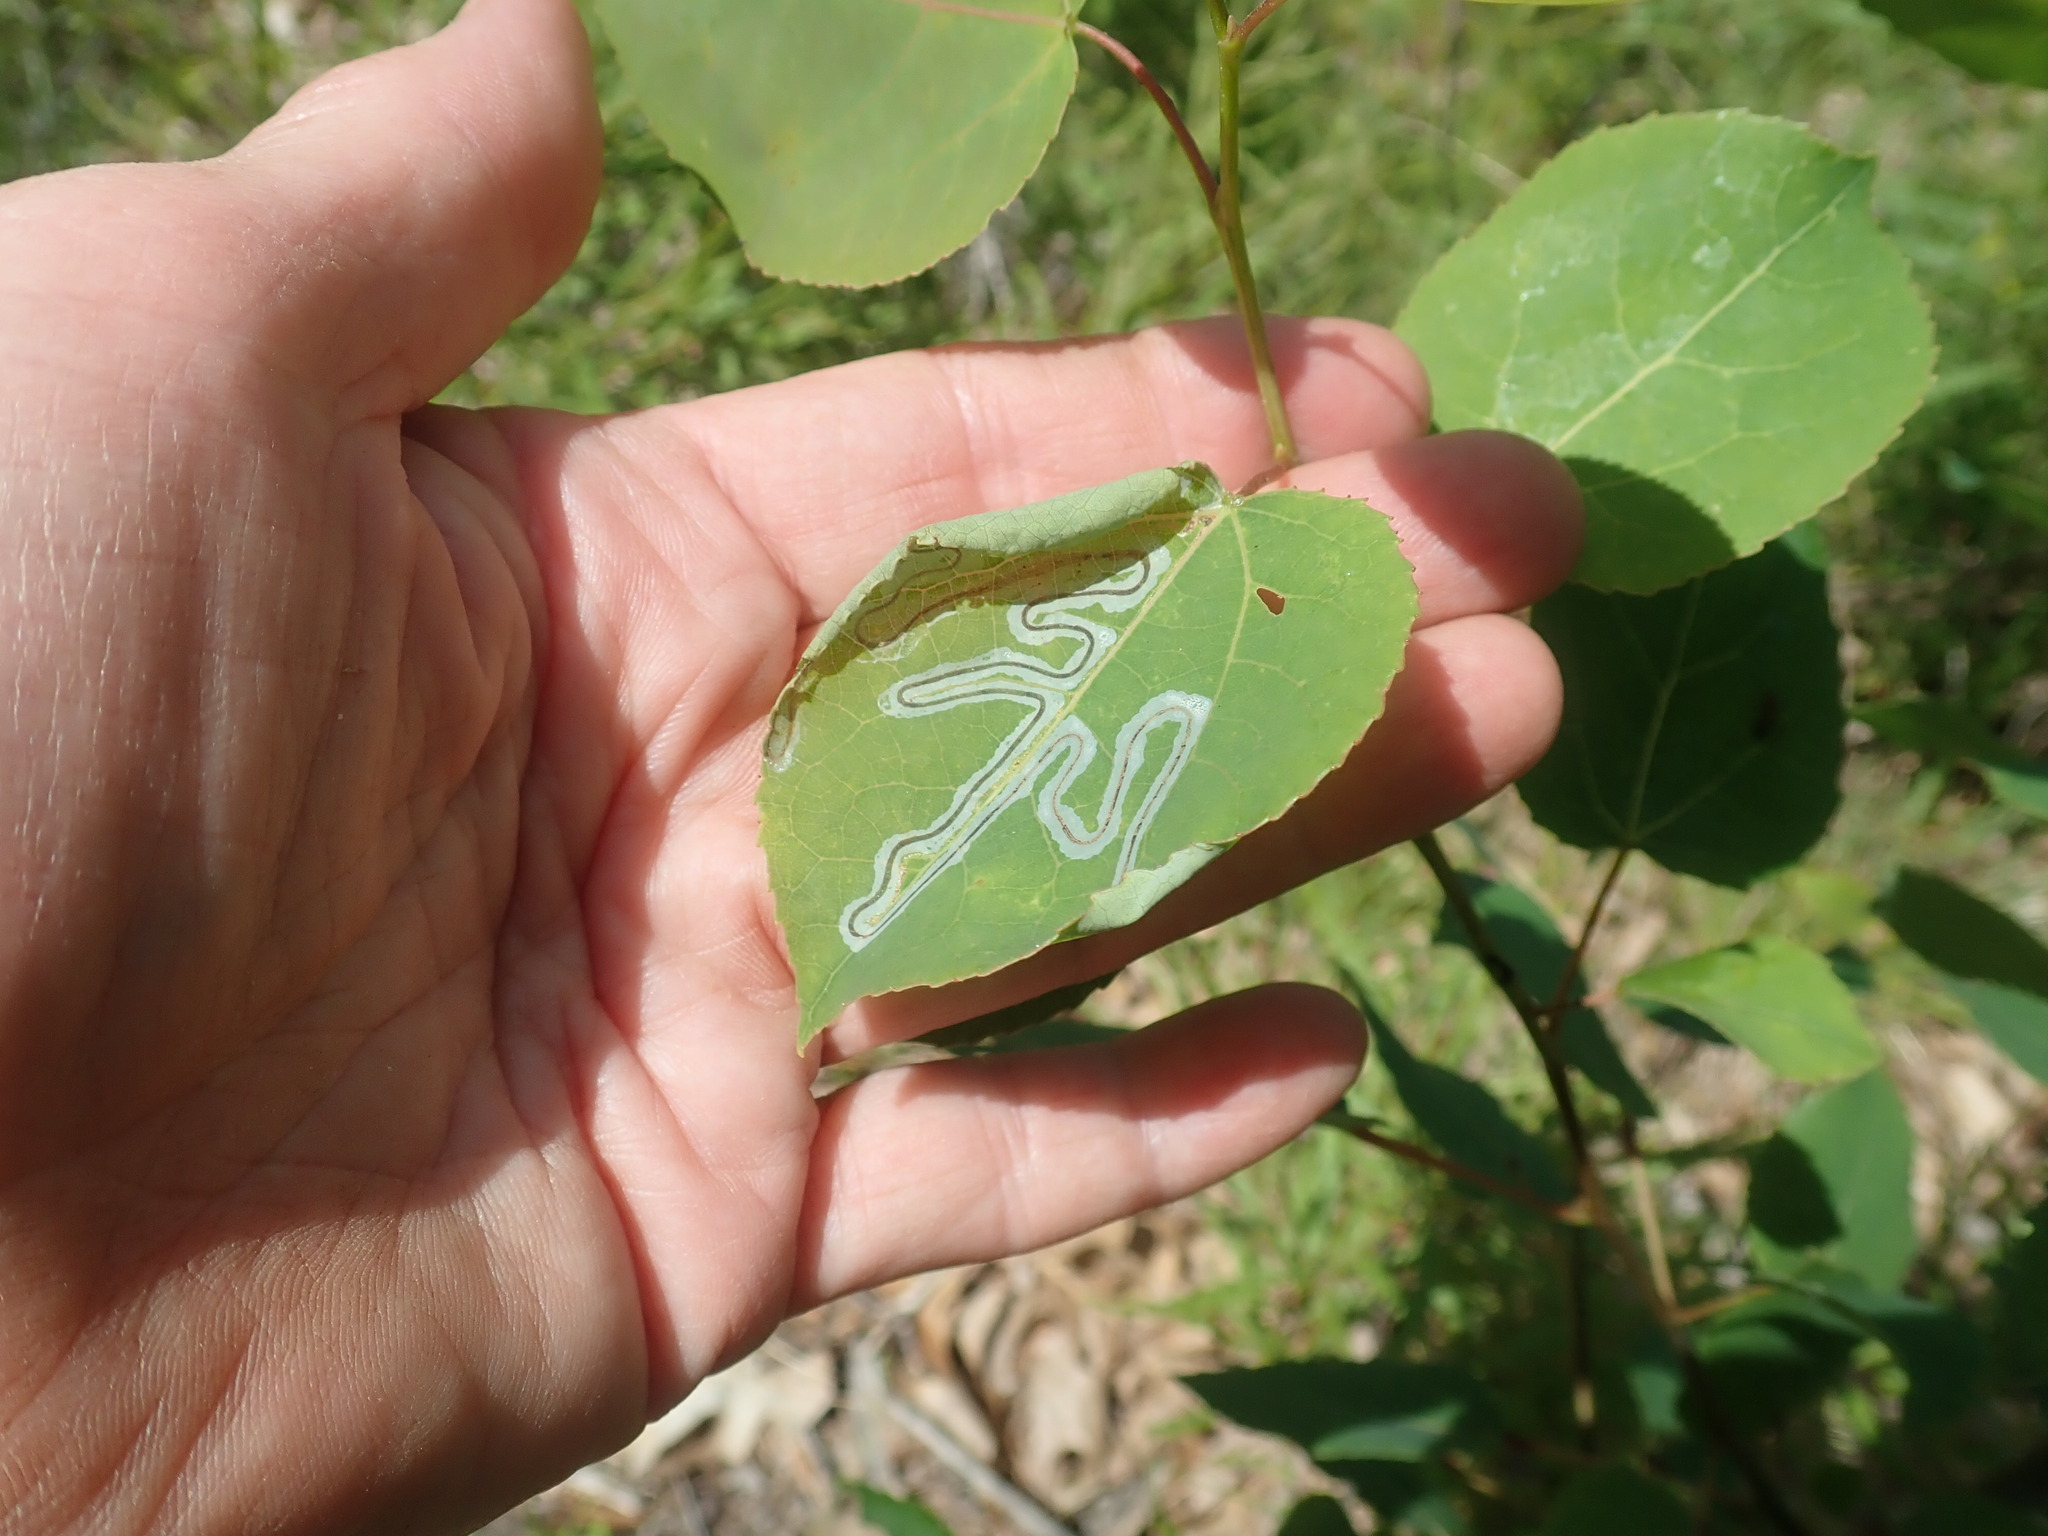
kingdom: Animalia
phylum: Arthropoda
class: Insecta
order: Lepidoptera
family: Gracillariidae
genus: Phyllocnistis
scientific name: Phyllocnistis populiella
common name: Aspen serpentine leafminer moth
